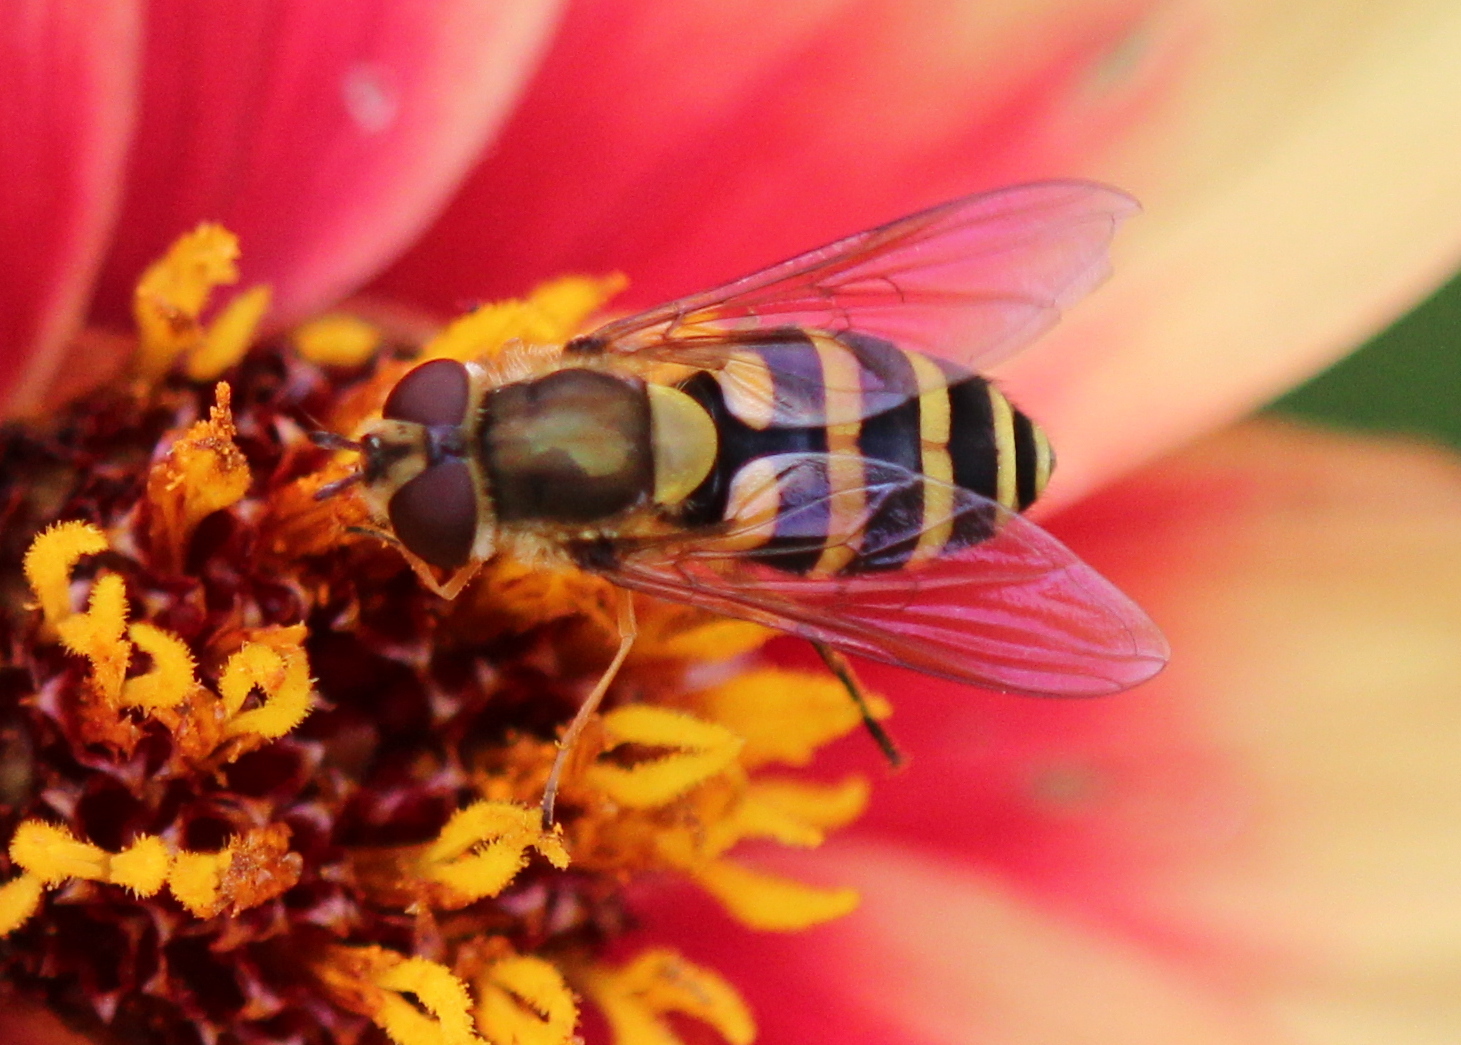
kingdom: Animalia
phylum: Arthropoda
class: Insecta
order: Diptera
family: Syrphidae
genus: Syrphus
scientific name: Syrphus
